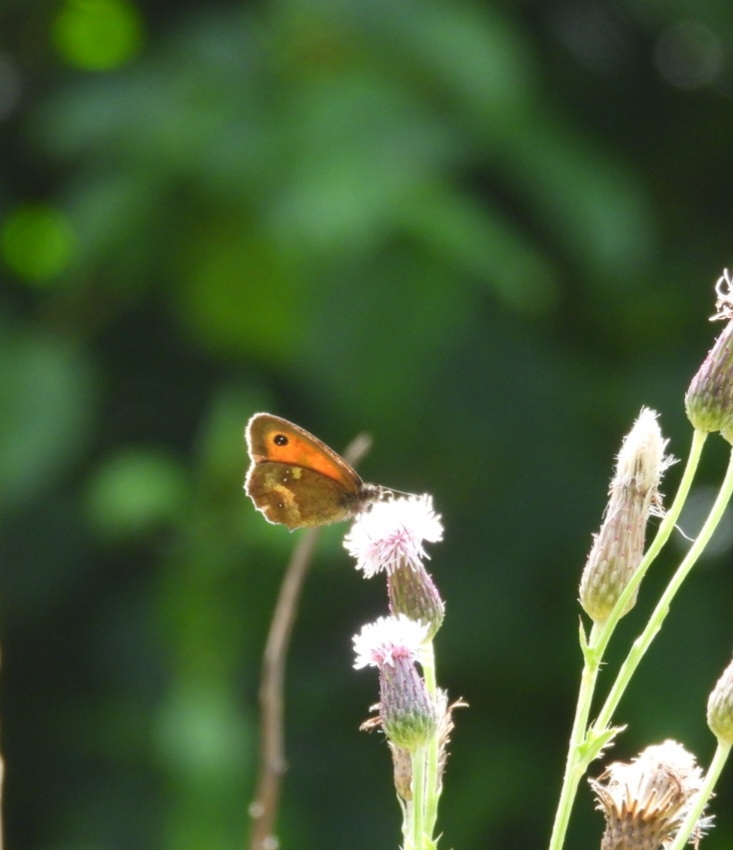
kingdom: Animalia
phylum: Arthropoda
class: Insecta
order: Lepidoptera
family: Nymphalidae
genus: Pyronia
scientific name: Pyronia tithonus
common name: Gatekeeper
